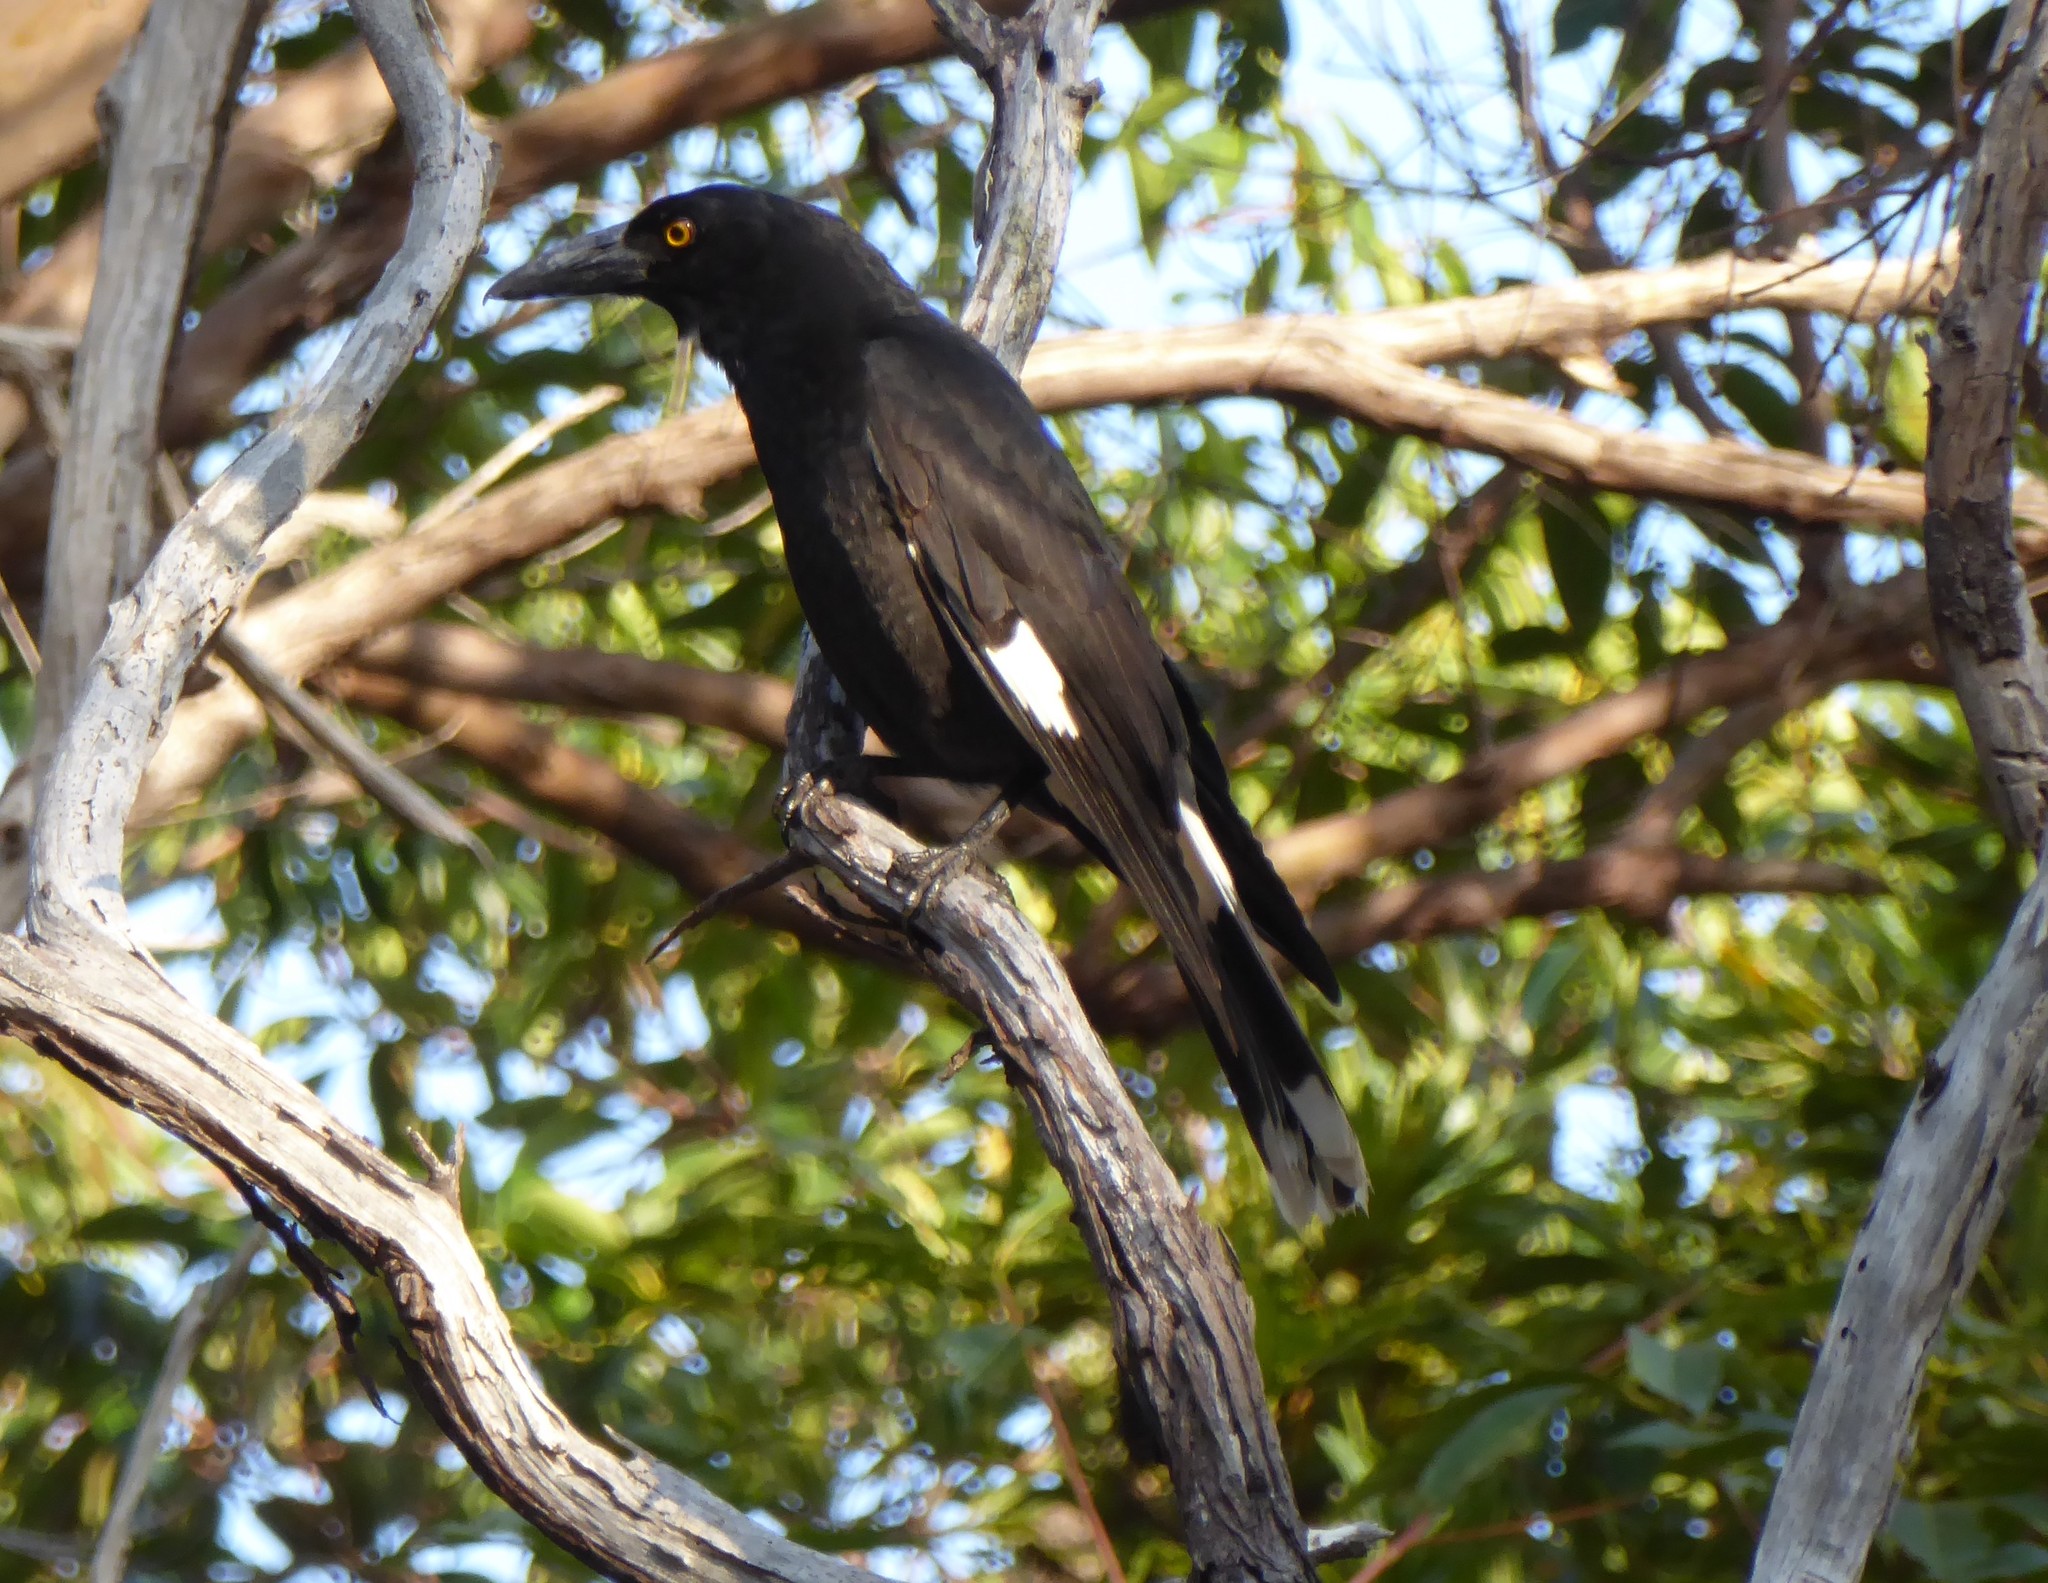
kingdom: Animalia
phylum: Chordata
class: Aves
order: Passeriformes
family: Cracticidae
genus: Strepera
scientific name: Strepera graculina
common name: Pied currawong
